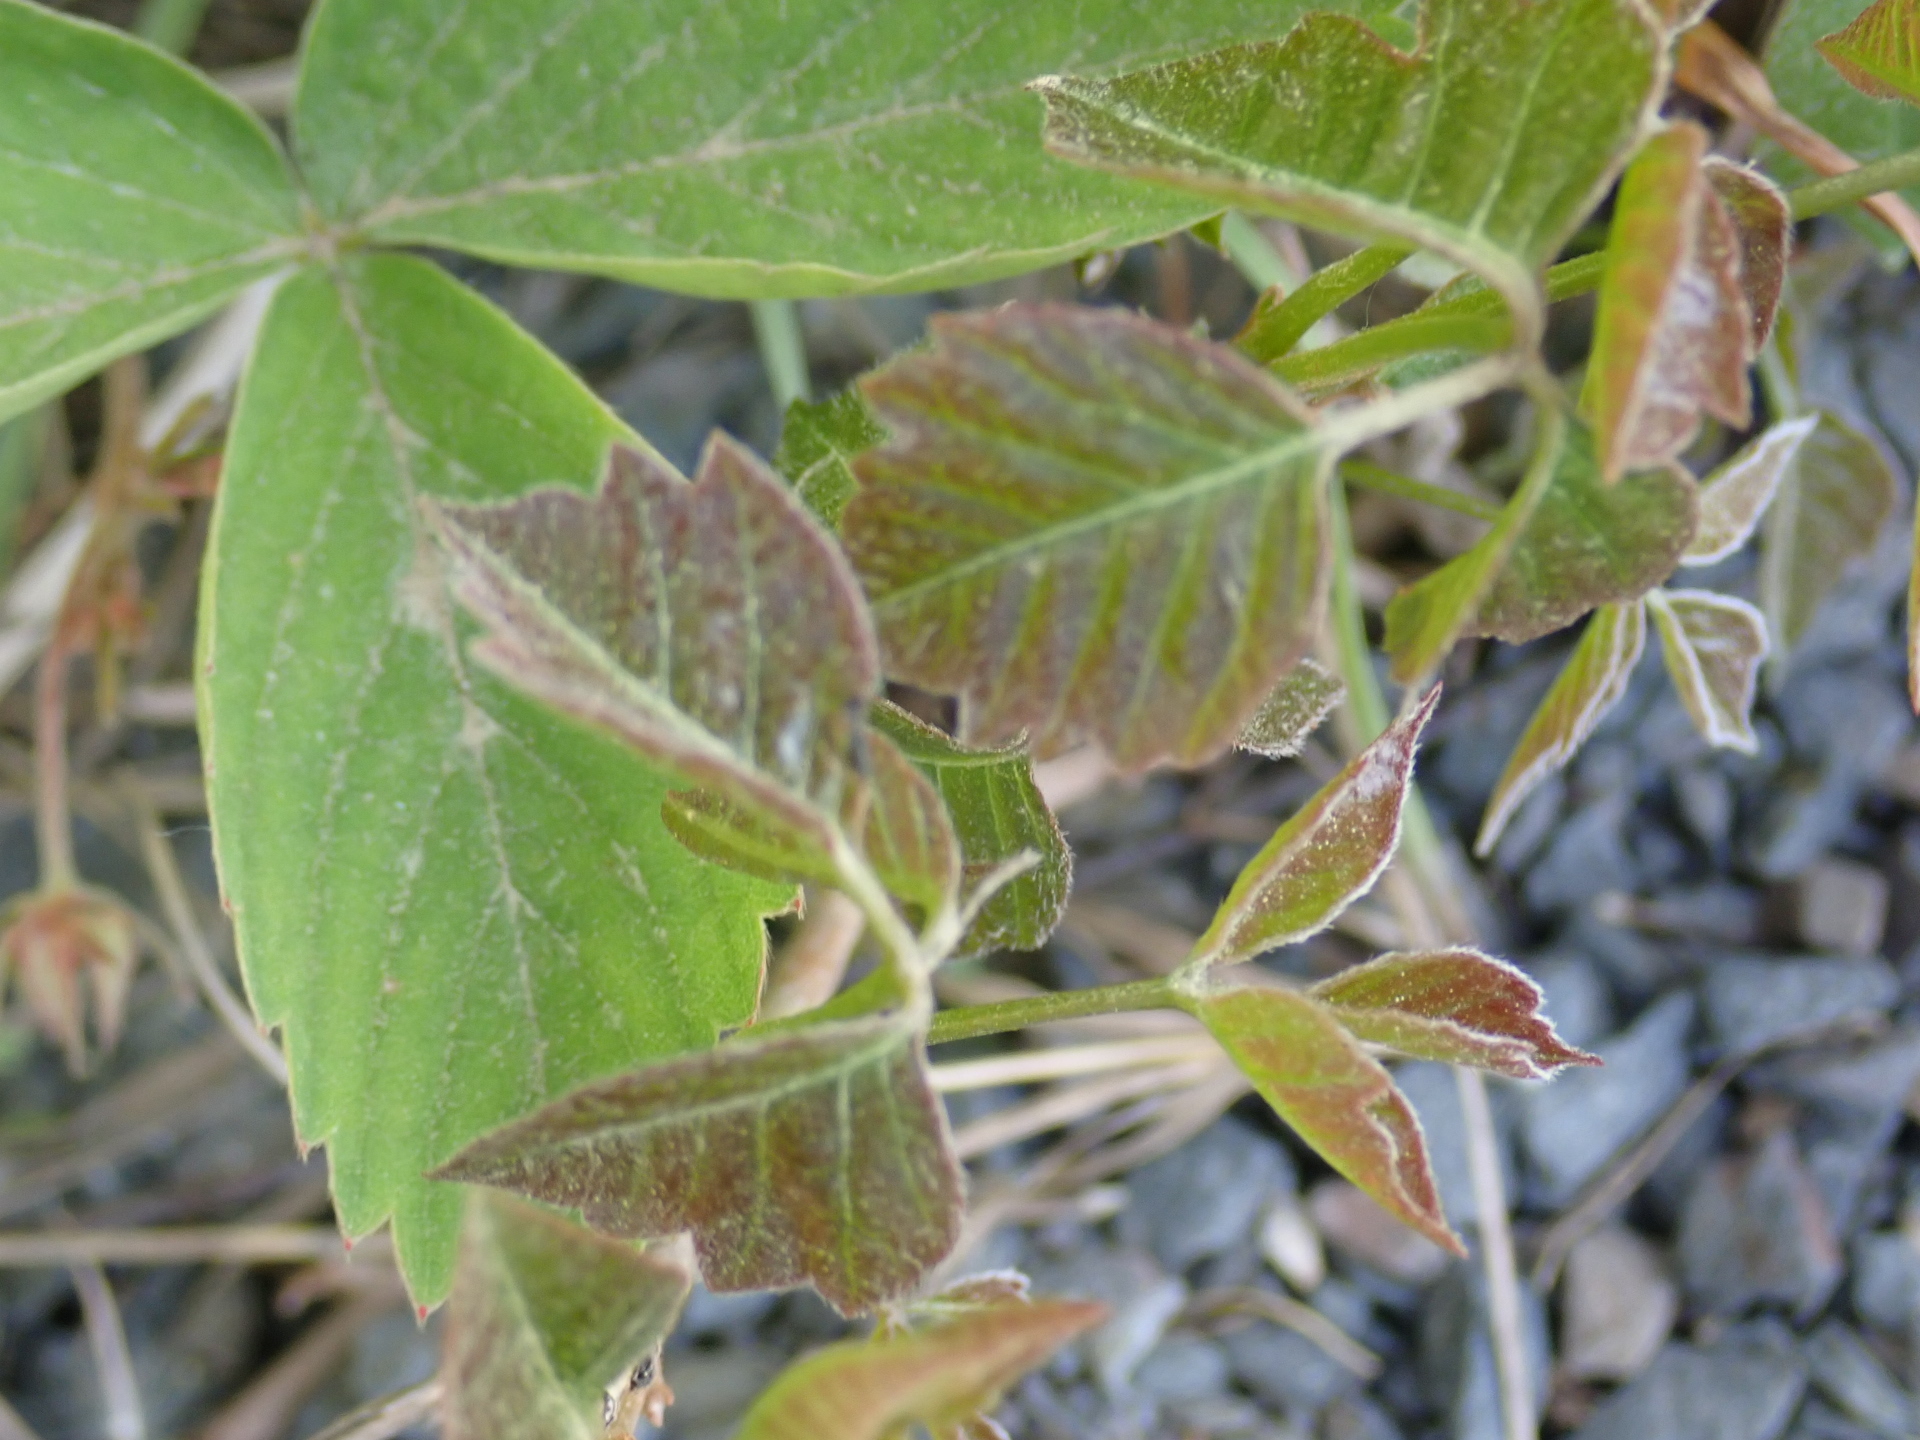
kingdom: Plantae
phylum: Tracheophyta
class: Magnoliopsida
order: Sapindales
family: Anacardiaceae
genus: Toxicodendron
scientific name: Toxicodendron radicans
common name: Poison ivy
